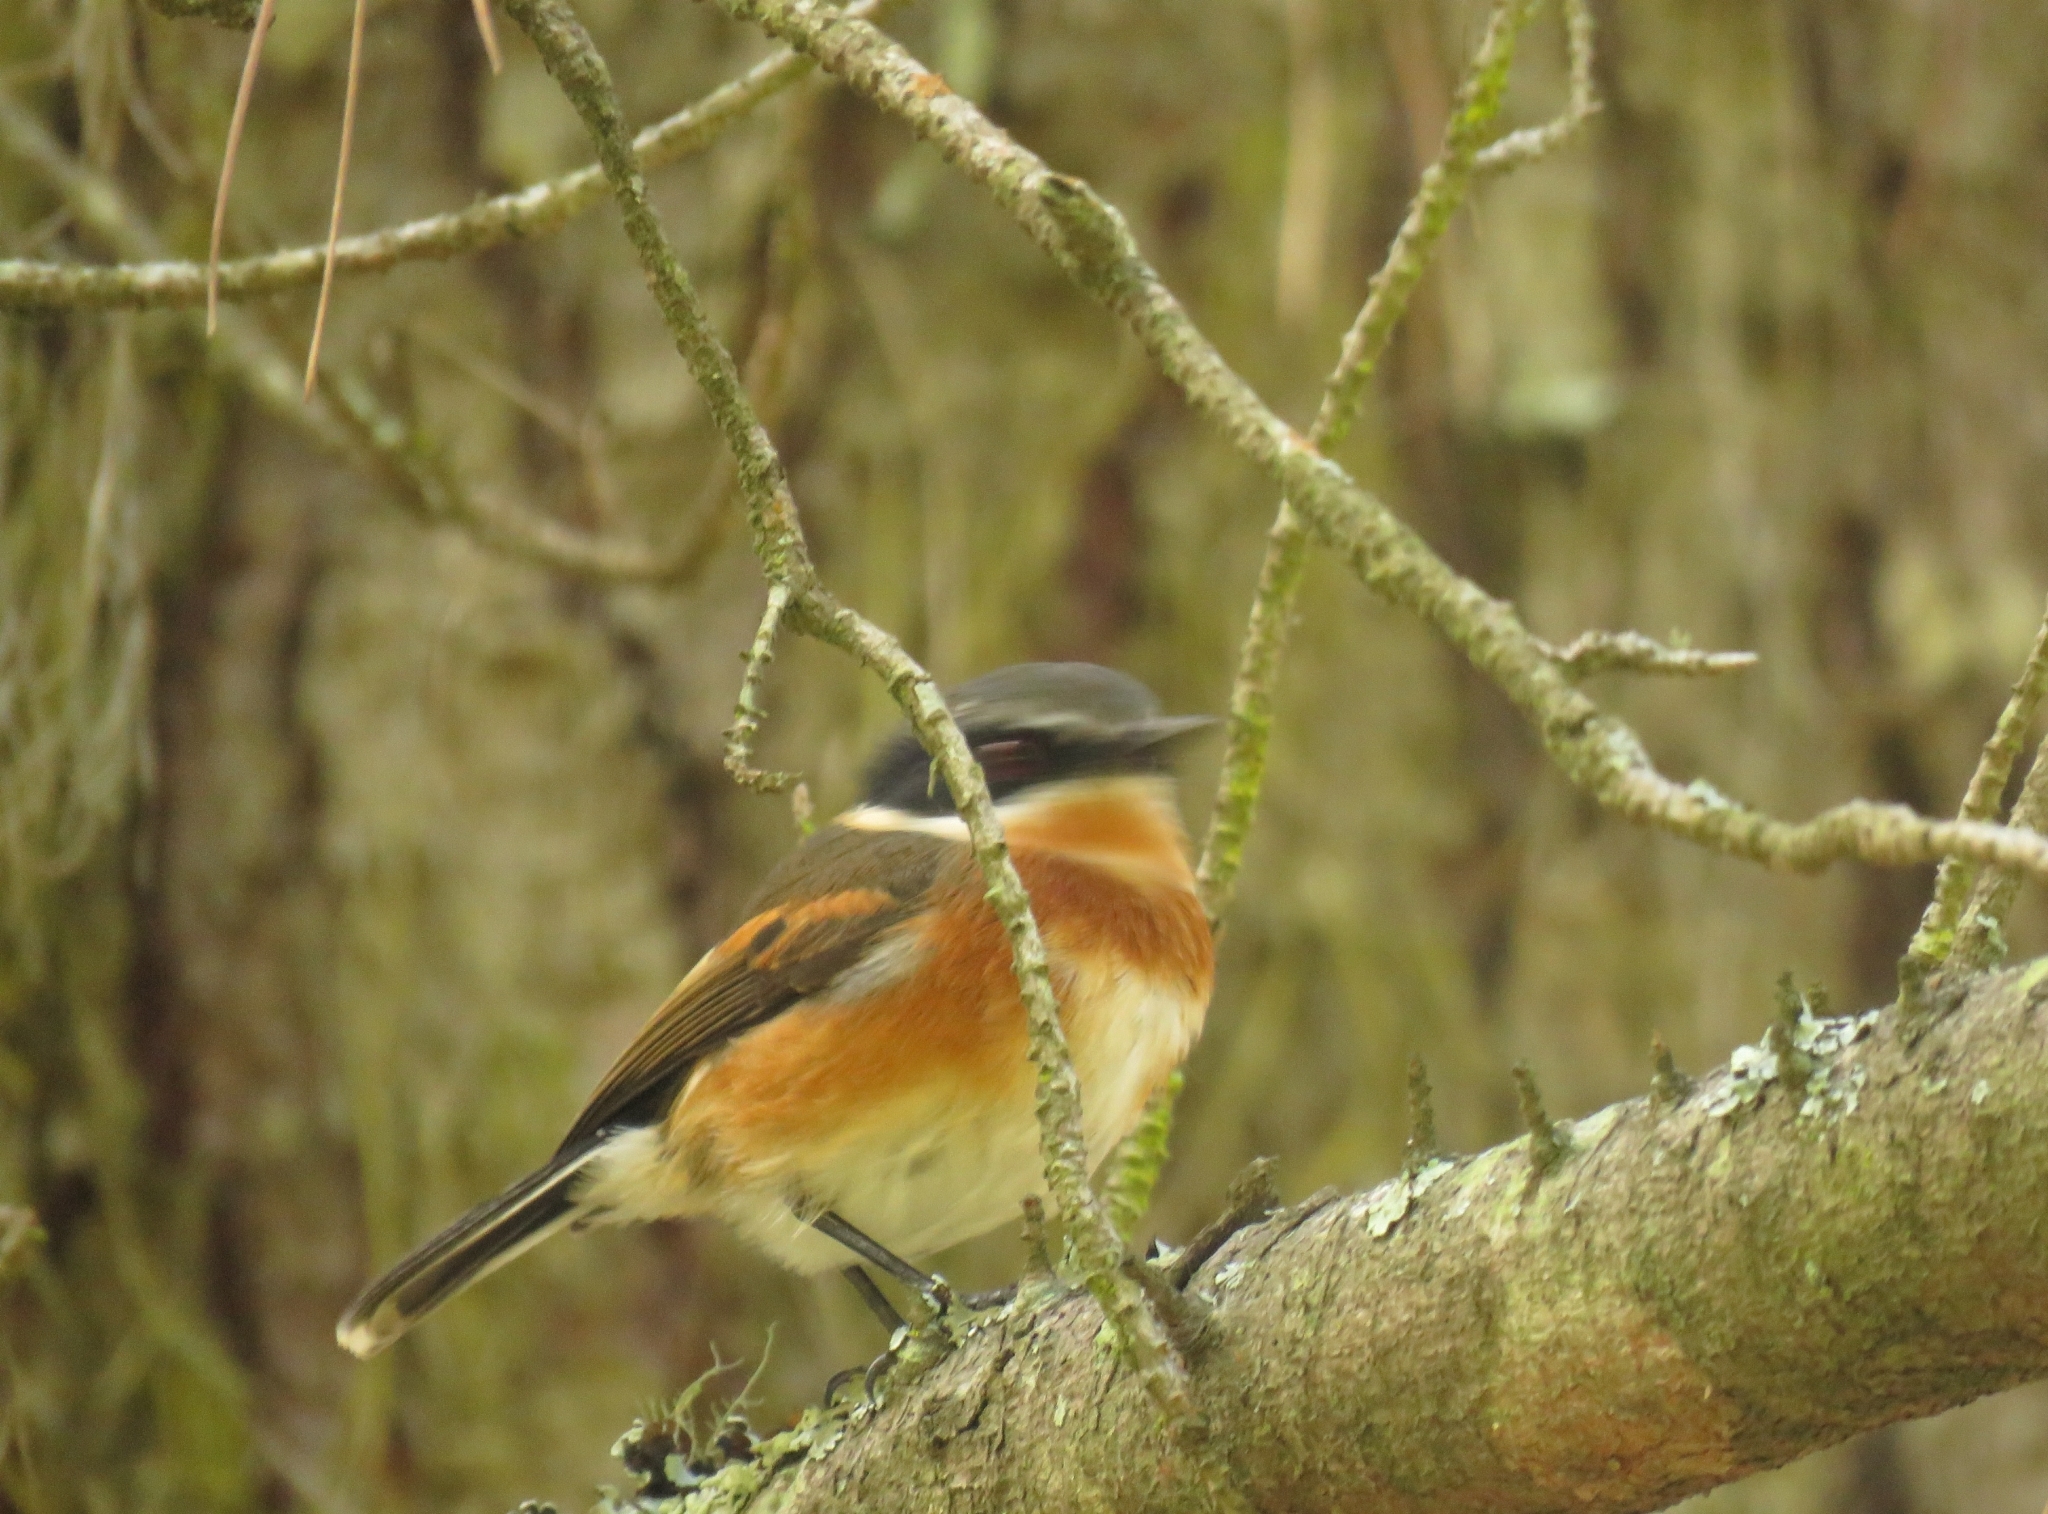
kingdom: Animalia
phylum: Chordata
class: Aves
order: Passeriformes
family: Platysteiridae
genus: Batis
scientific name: Batis capensis
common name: Cape batis
